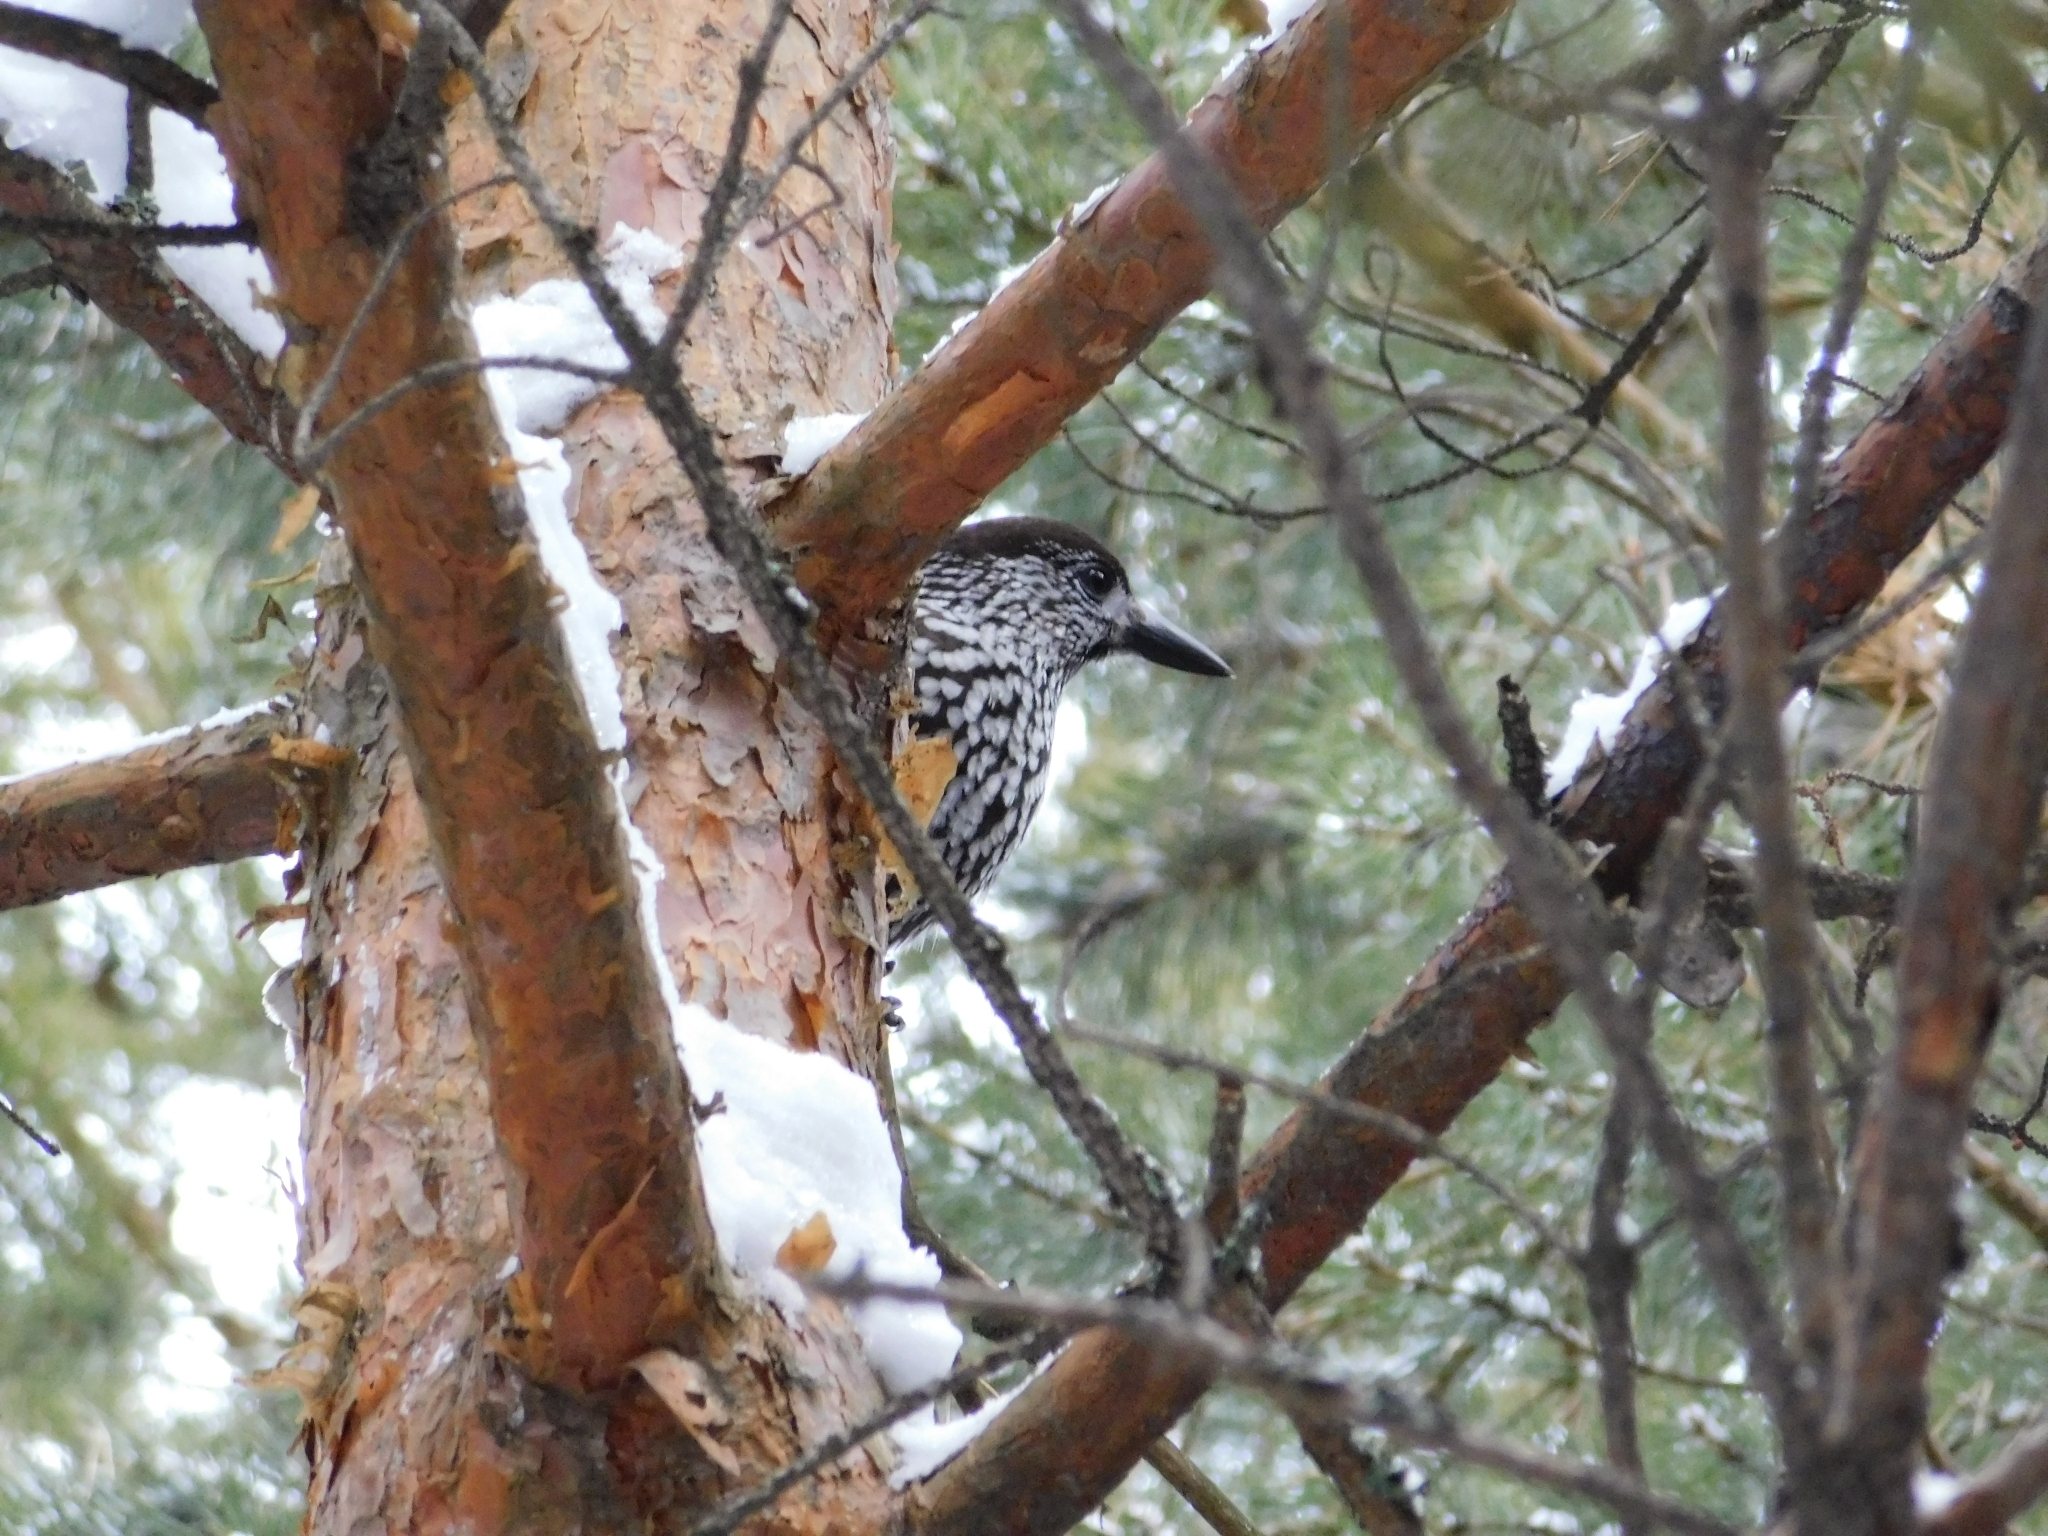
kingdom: Animalia
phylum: Chordata
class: Aves
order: Passeriformes
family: Corvidae
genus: Nucifraga
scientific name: Nucifraga caryocatactes
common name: Spotted nutcracker
